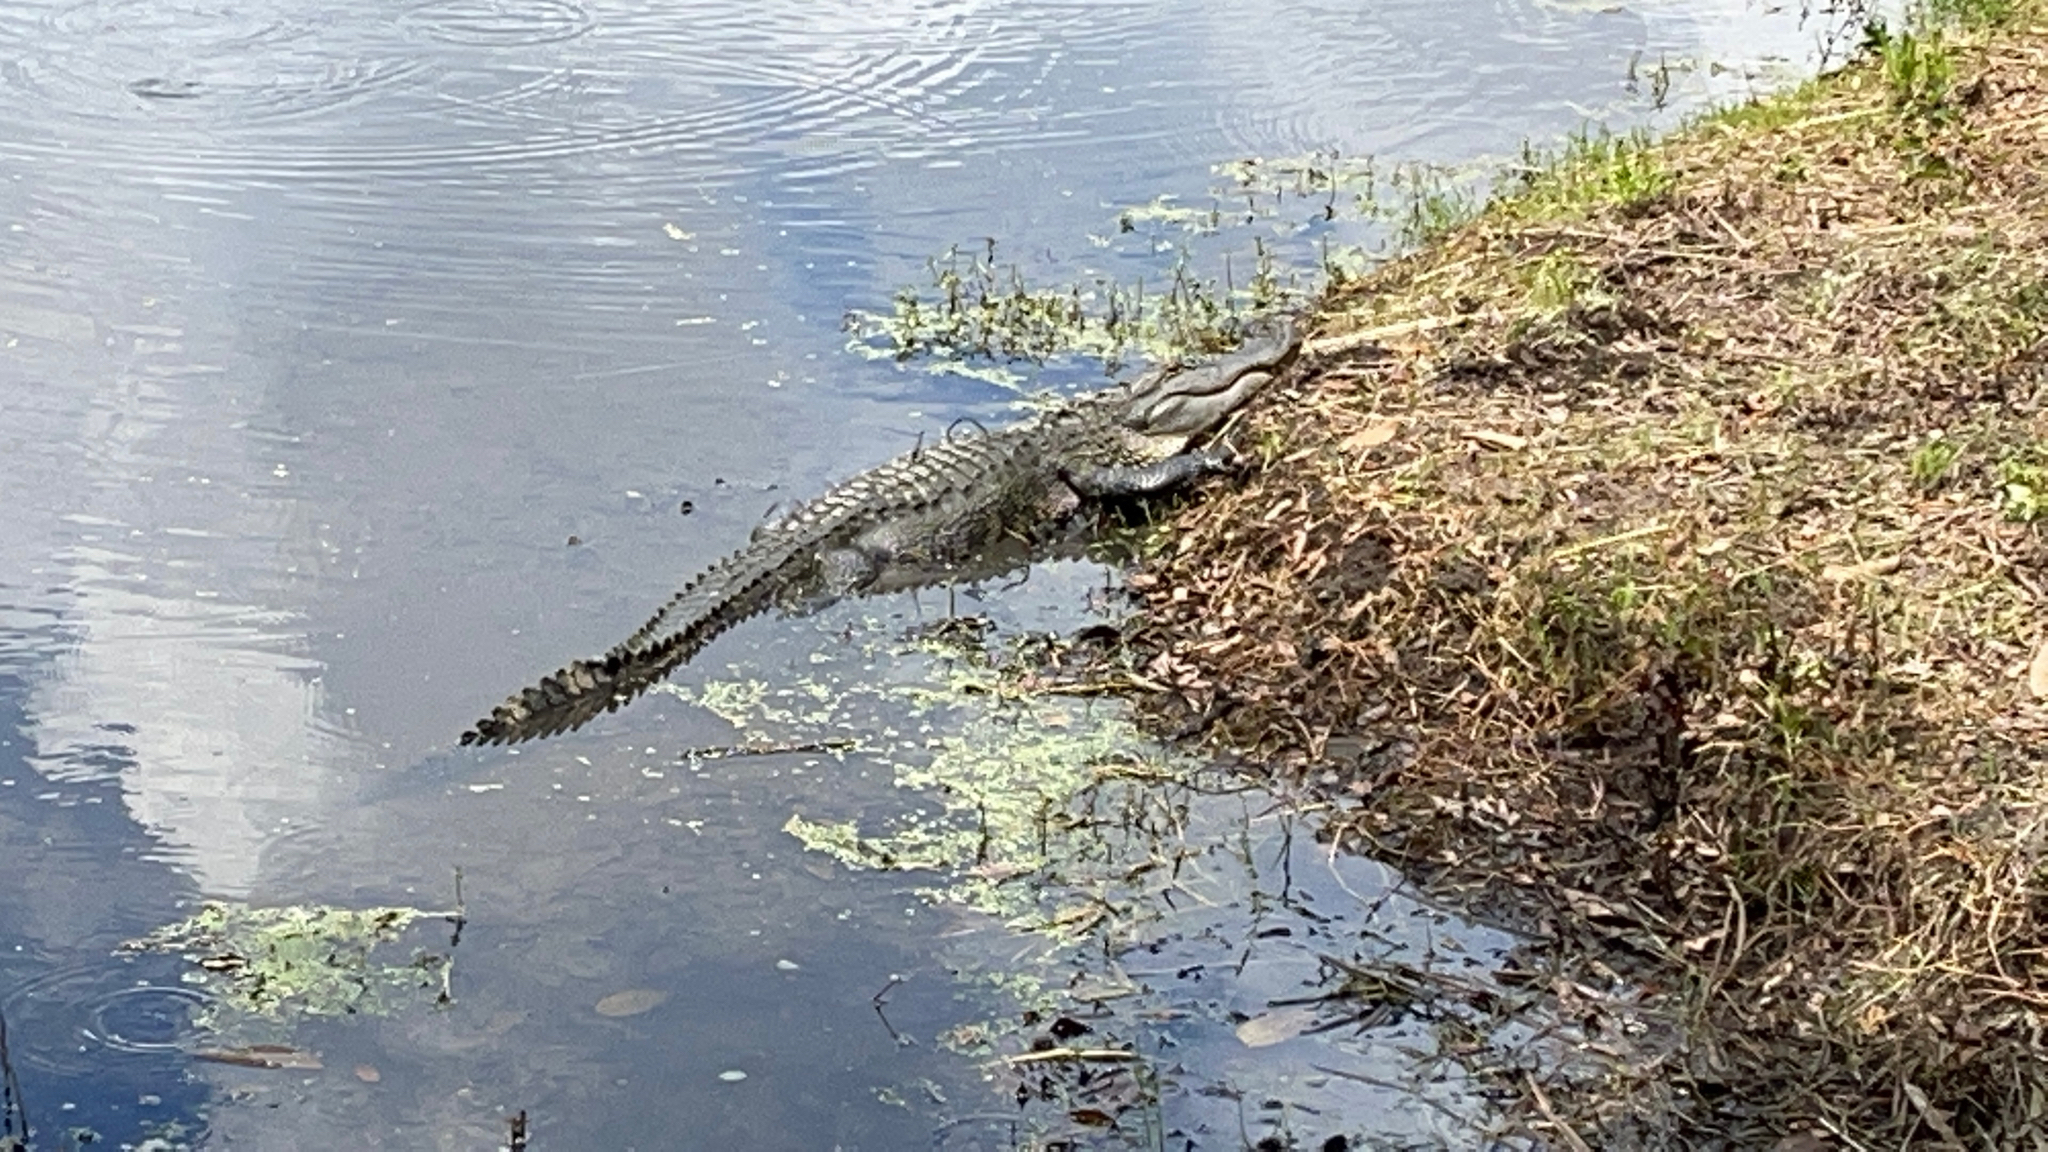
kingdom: Animalia
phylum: Chordata
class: Crocodylia
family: Alligatoridae
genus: Alligator
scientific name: Alligator mississippiensis
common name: American alligator
